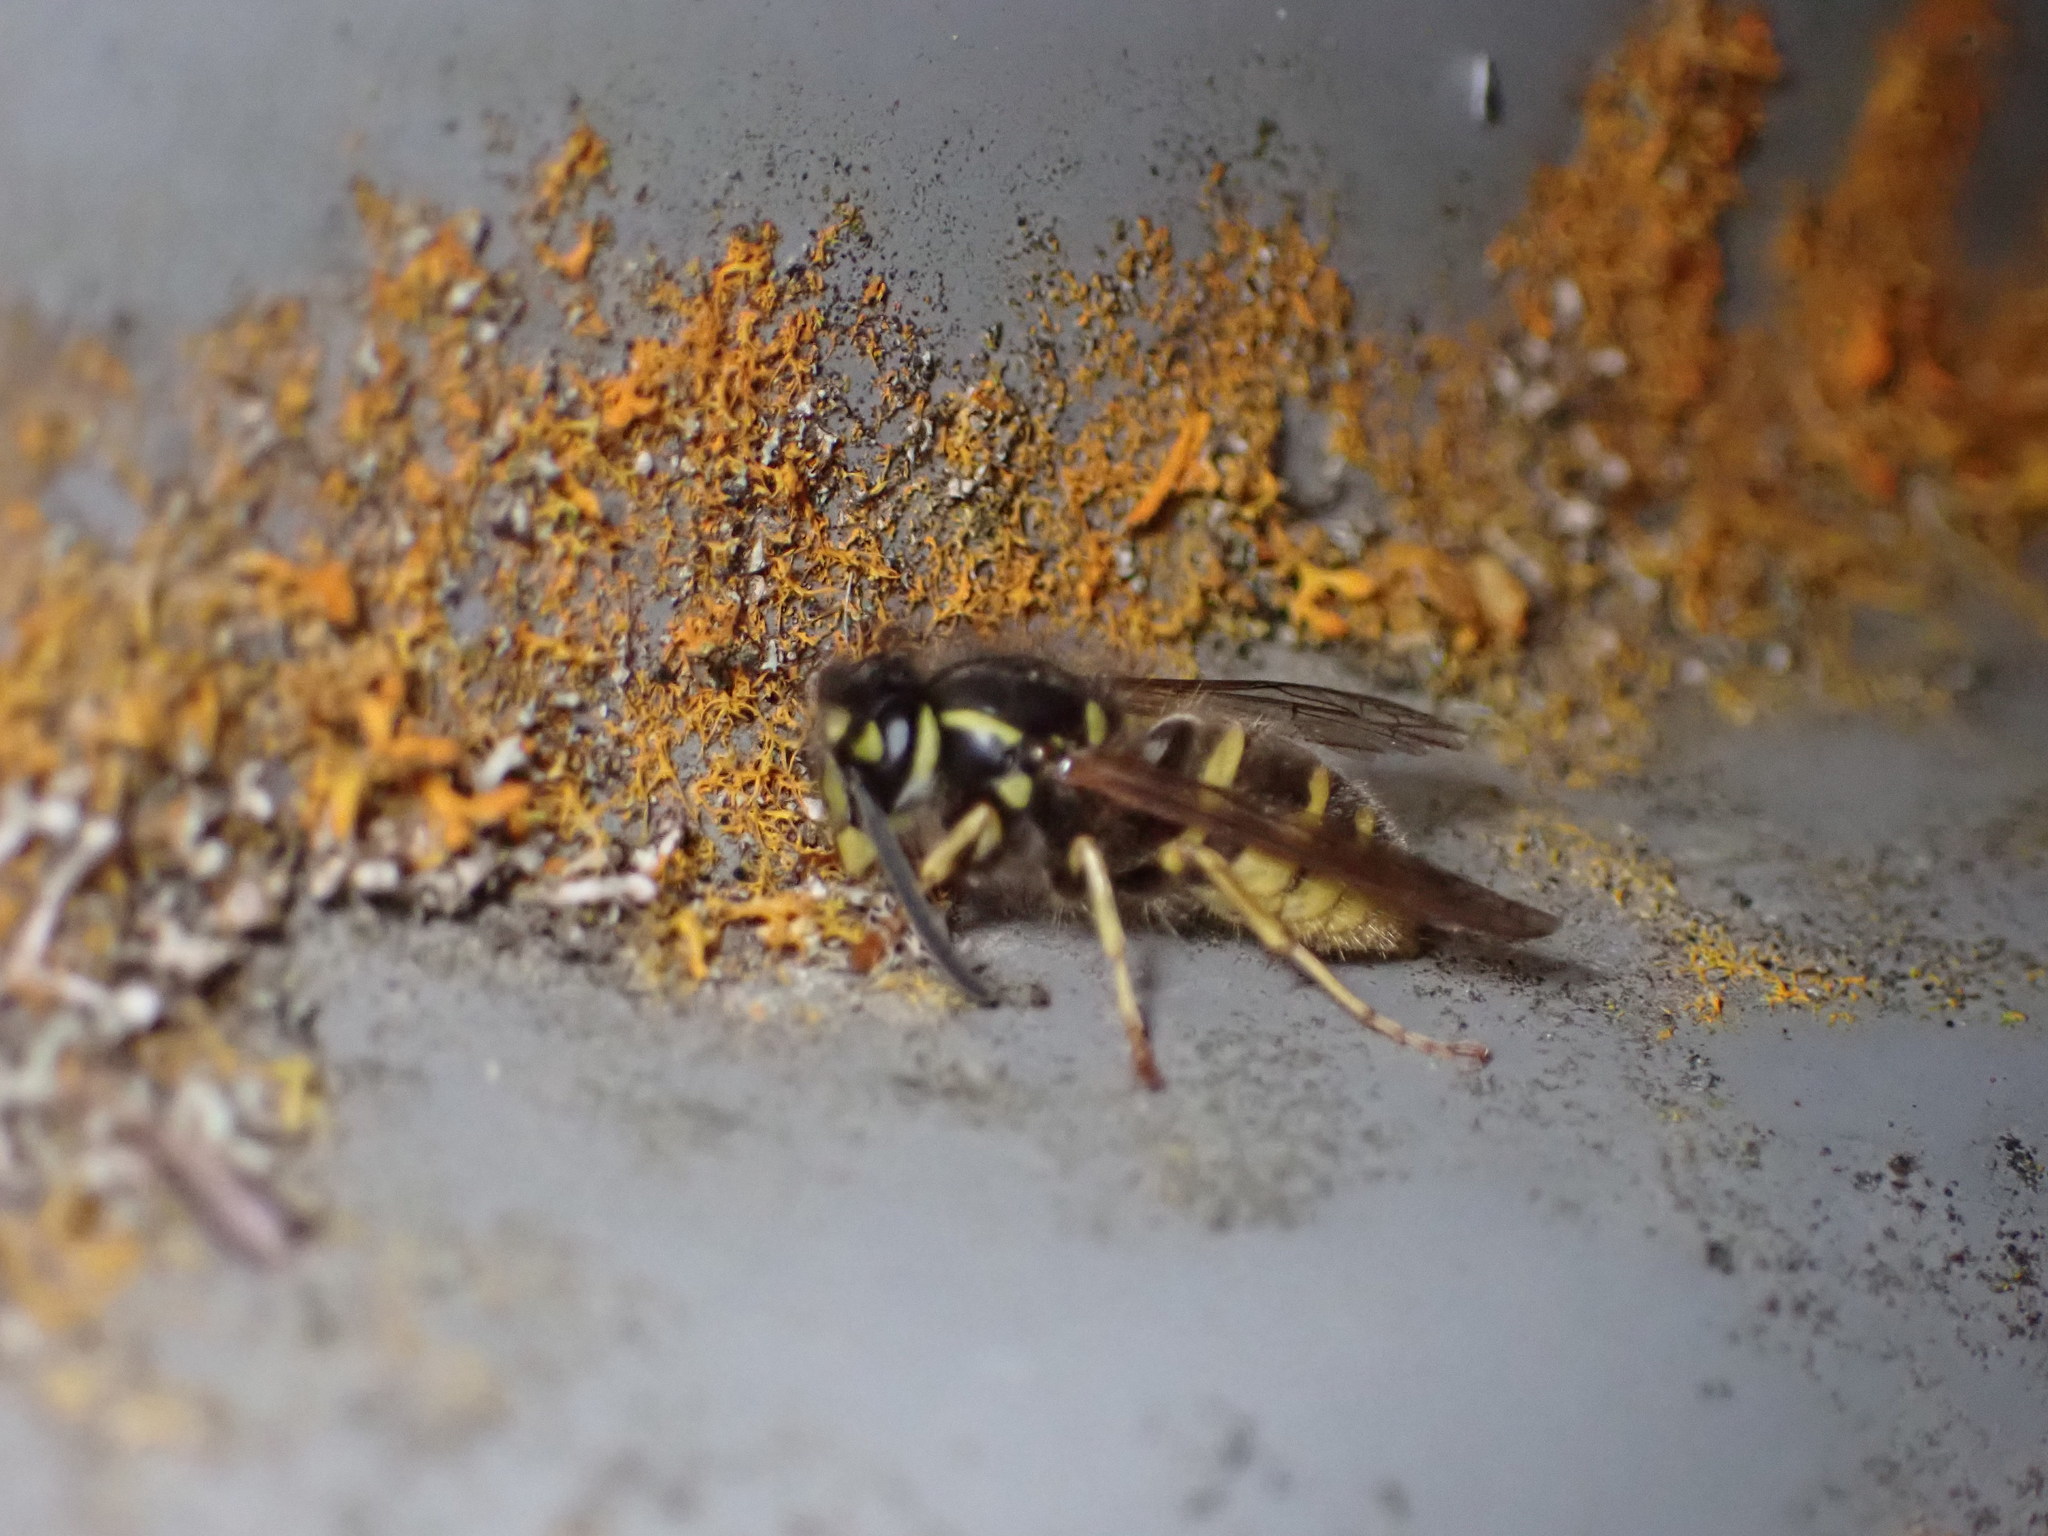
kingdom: Animalia
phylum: Arthropoda
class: Insecta
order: Hymenoptera
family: Vespidae
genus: Vespula
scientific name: Vespula vulgaris
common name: Common wasp
